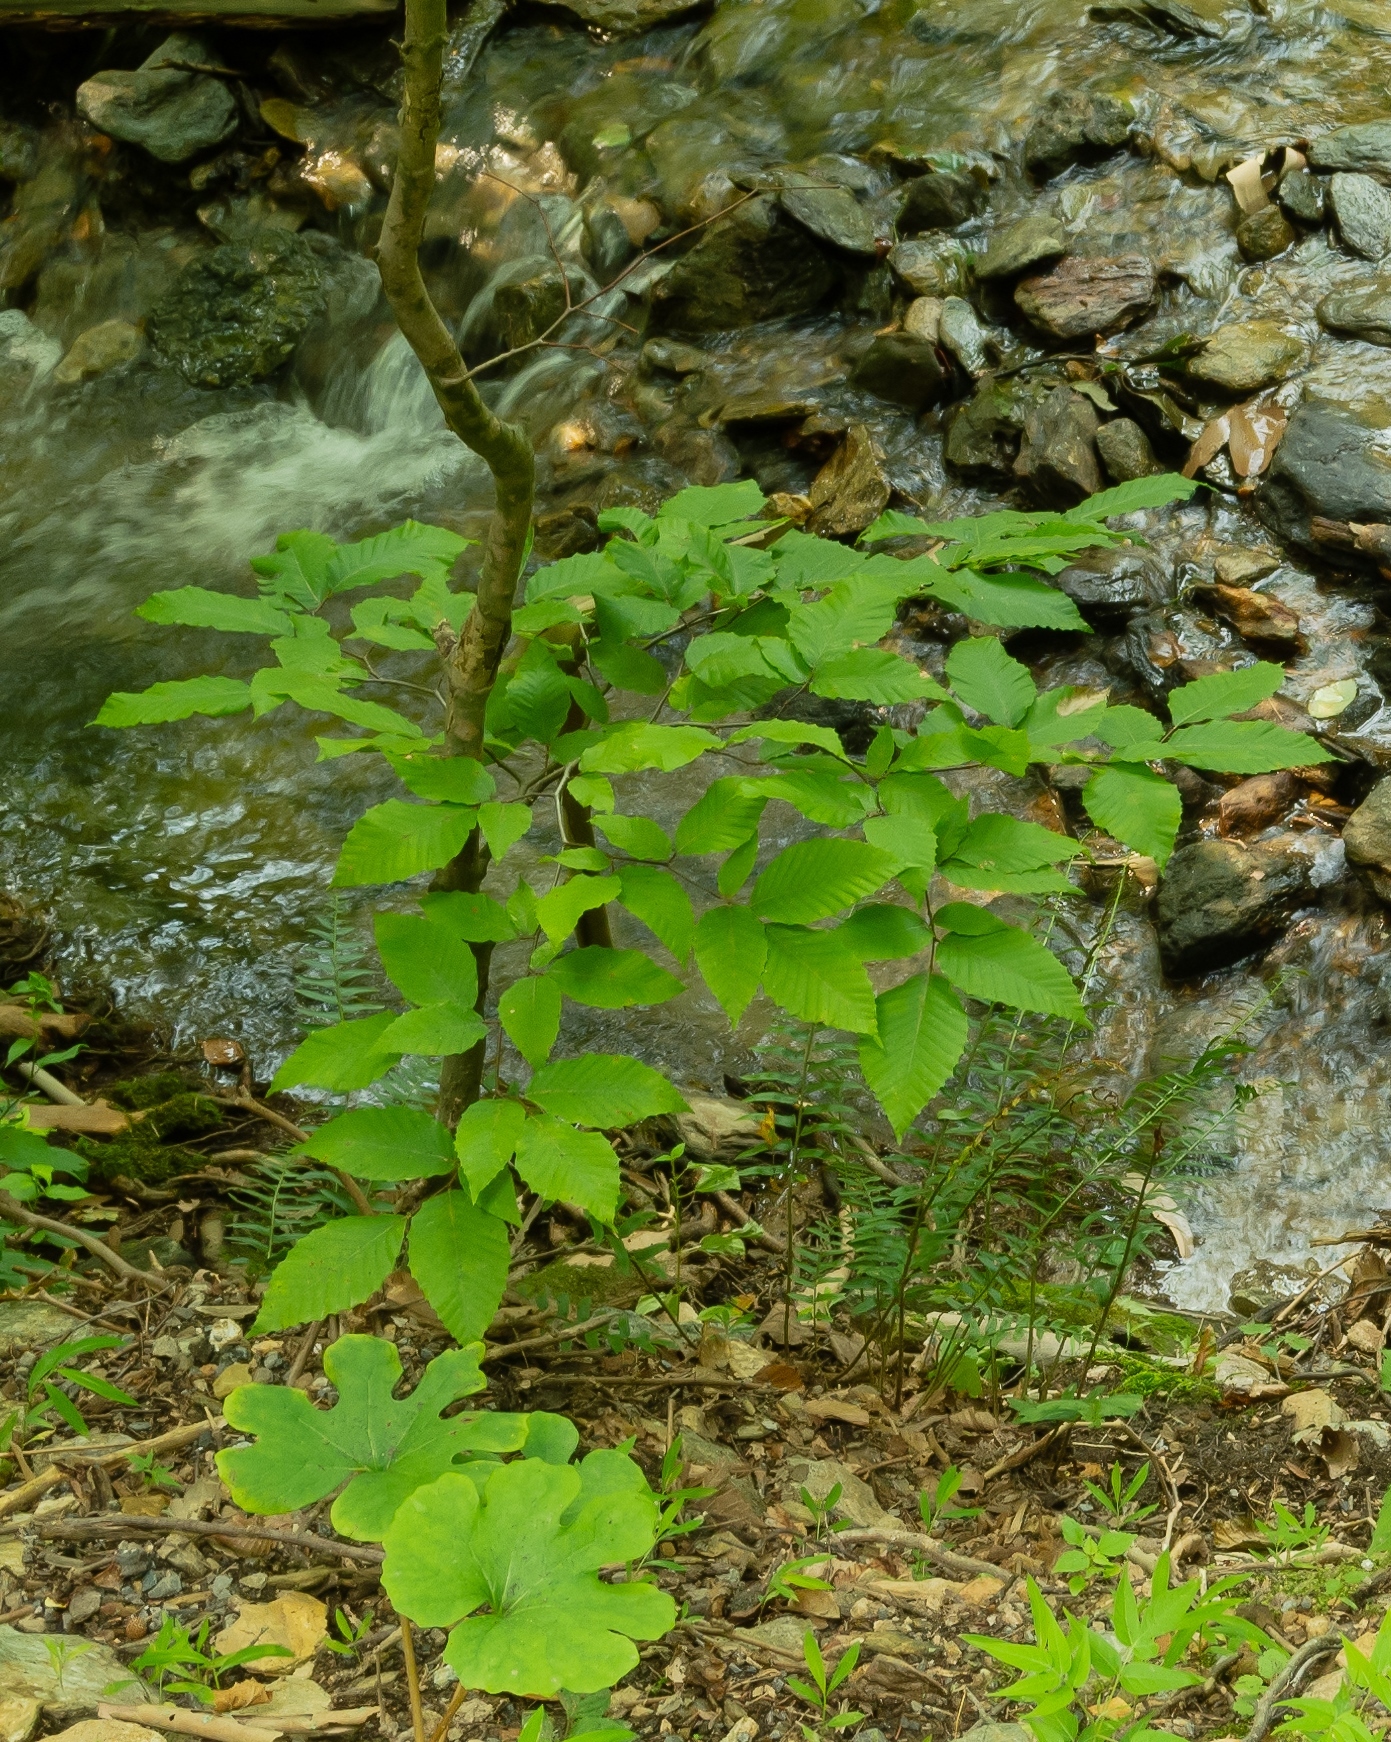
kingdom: Plantae
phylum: Tracheophyta
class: Magnoliopsida
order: Fagales
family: Fagaceae
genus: Fagus
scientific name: Fagus grandifolia
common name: American beech
